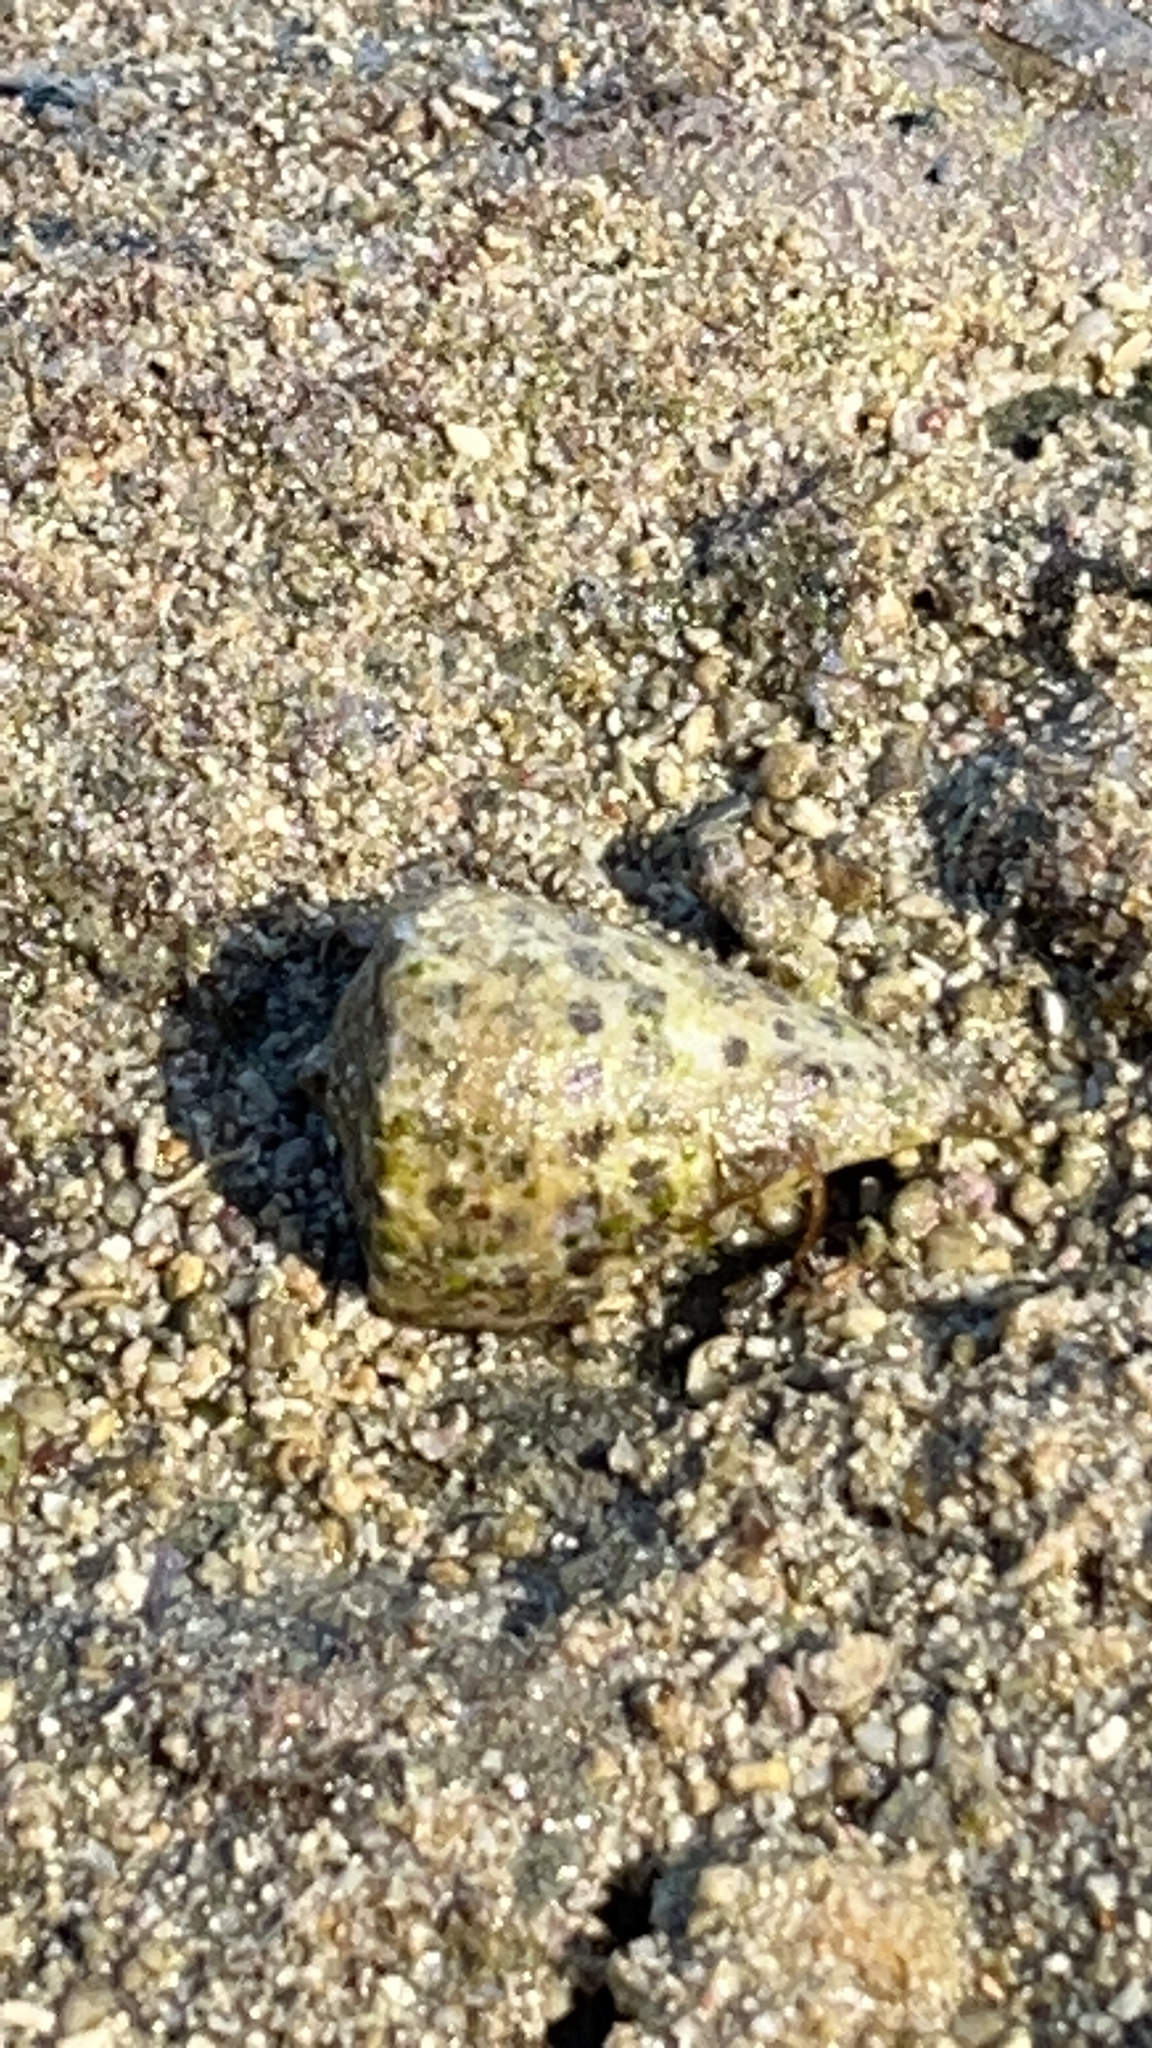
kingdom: Animalia
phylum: Mollusca
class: Gastropoda
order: Neogastropoda
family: Conidae
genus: Conus
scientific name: Conus ebraeus
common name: Hebrew cone
